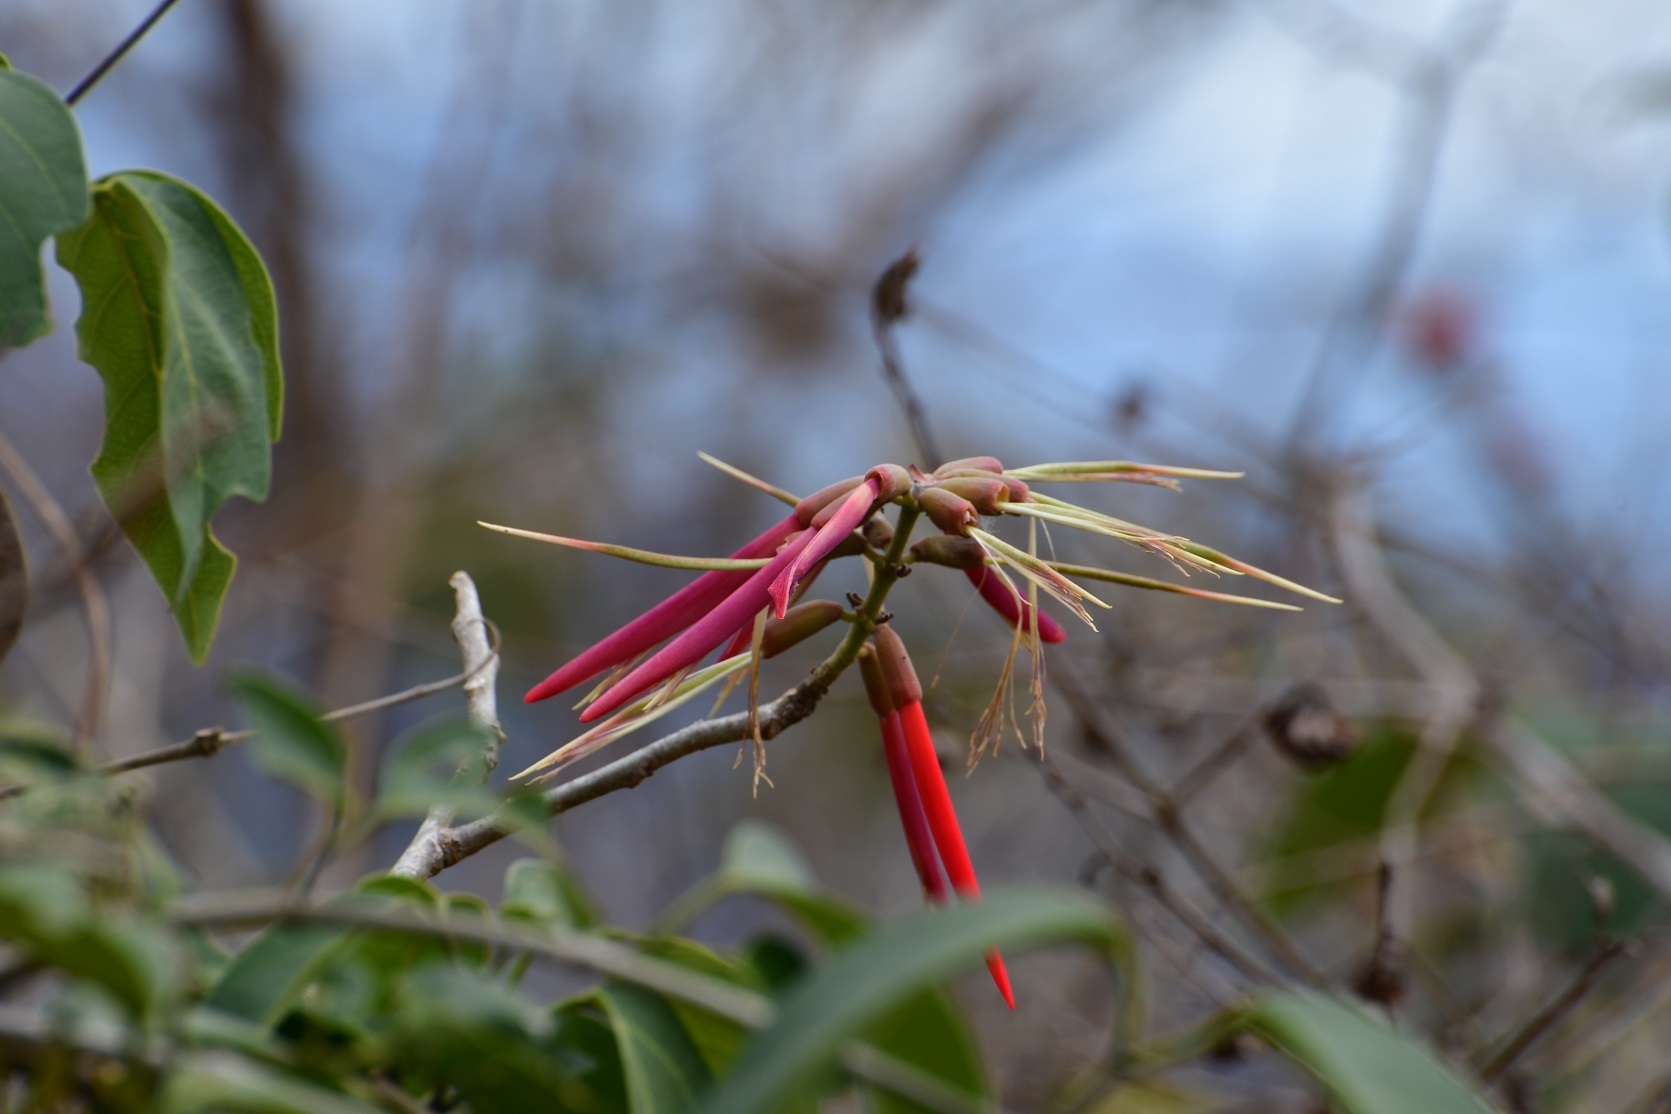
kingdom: Plantae
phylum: Tracheophyta
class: Magnoliopsida
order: Fabales
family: Fabaceae
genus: Erythrina
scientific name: Erythrina goldmanii
